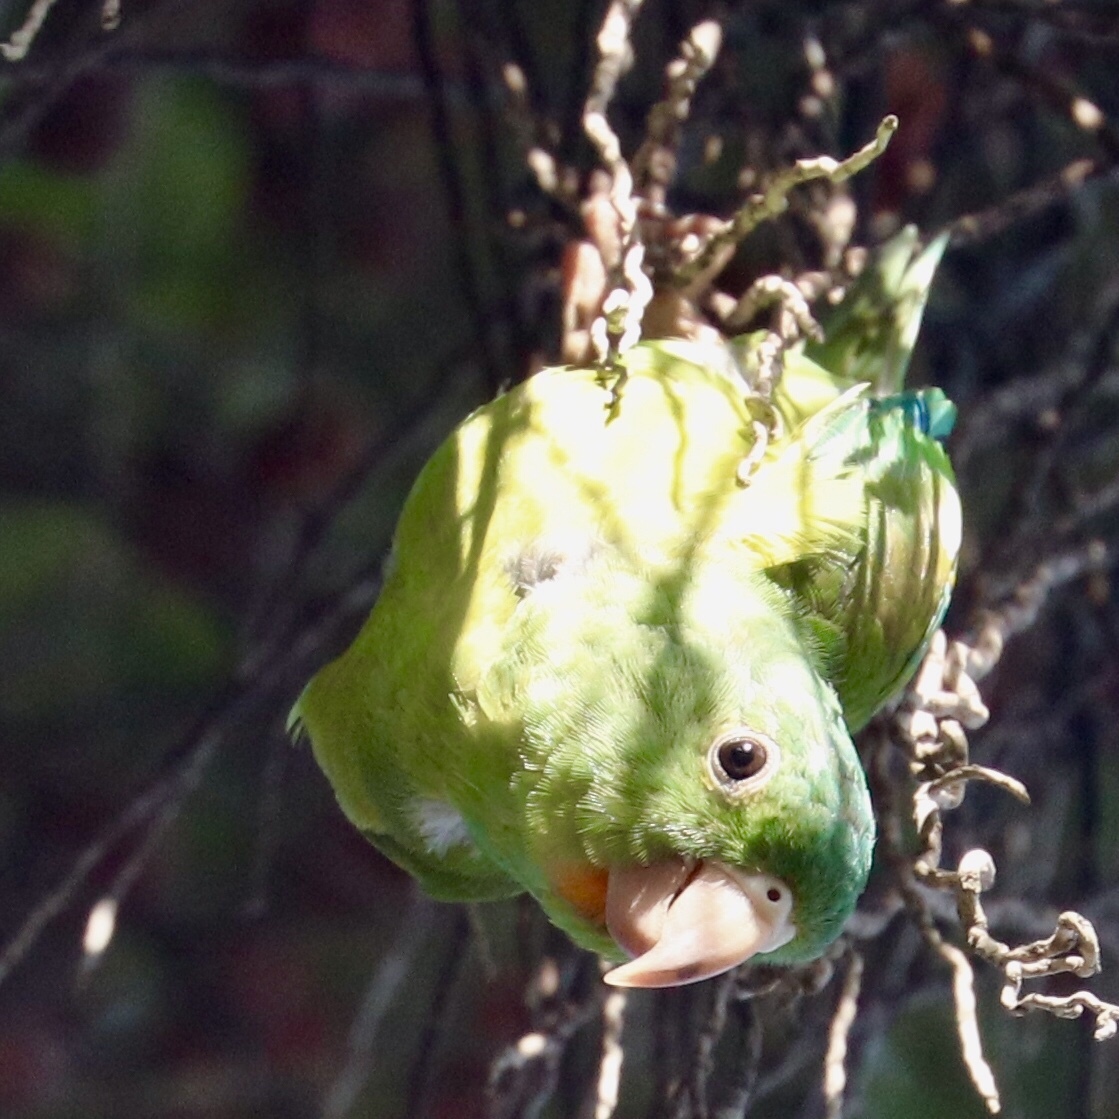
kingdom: Animalia
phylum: Chordata
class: Aves
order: Psittaciformes
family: Psittacidae
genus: Brotogeris
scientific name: Brotogeris jugularis
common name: Orange-chinned parakeet
